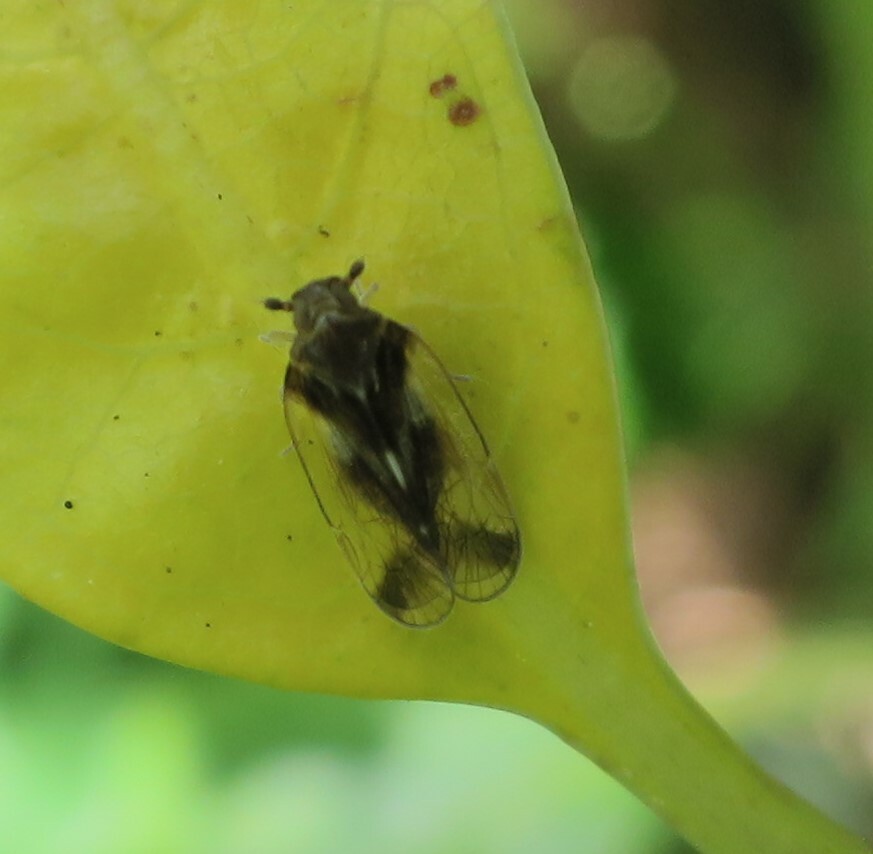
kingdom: Animalia
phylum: Arthropoda
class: Insecta
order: Hemiptera
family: Cixiidae
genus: Tiriteana
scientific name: Tiriteana clarkei
